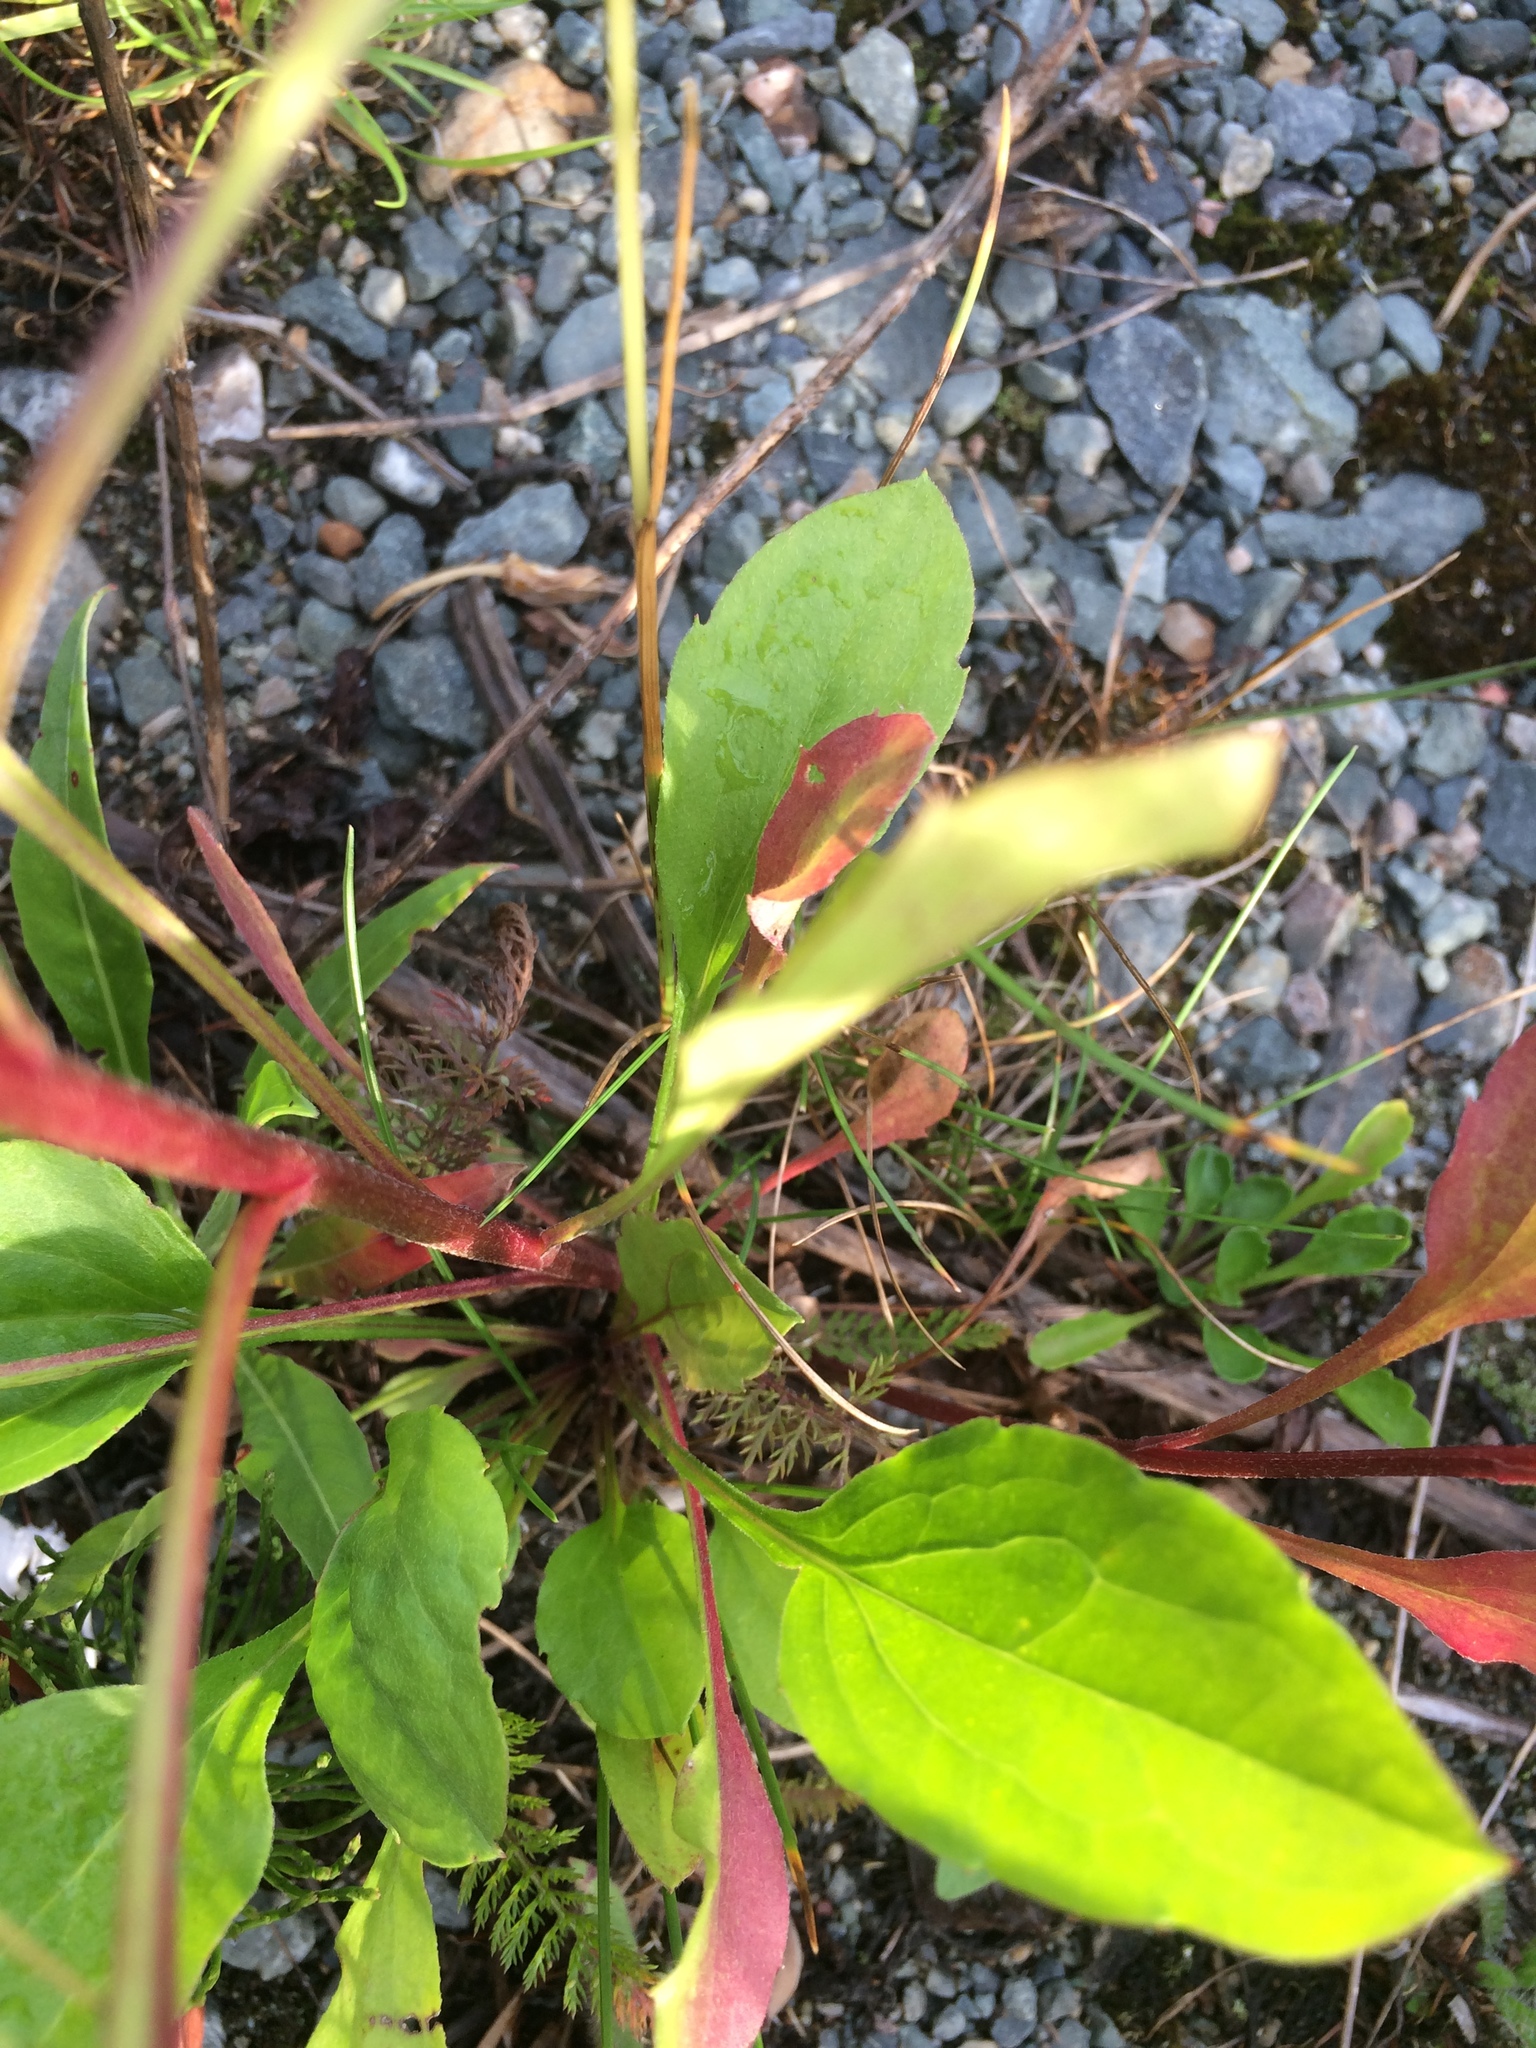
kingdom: Plantae
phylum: Tracheophyta
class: Magnoliopsida
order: Asterales
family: Asteraceae
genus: Erigeron
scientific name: Erigeron strigosus
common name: Common eastern fleabane
